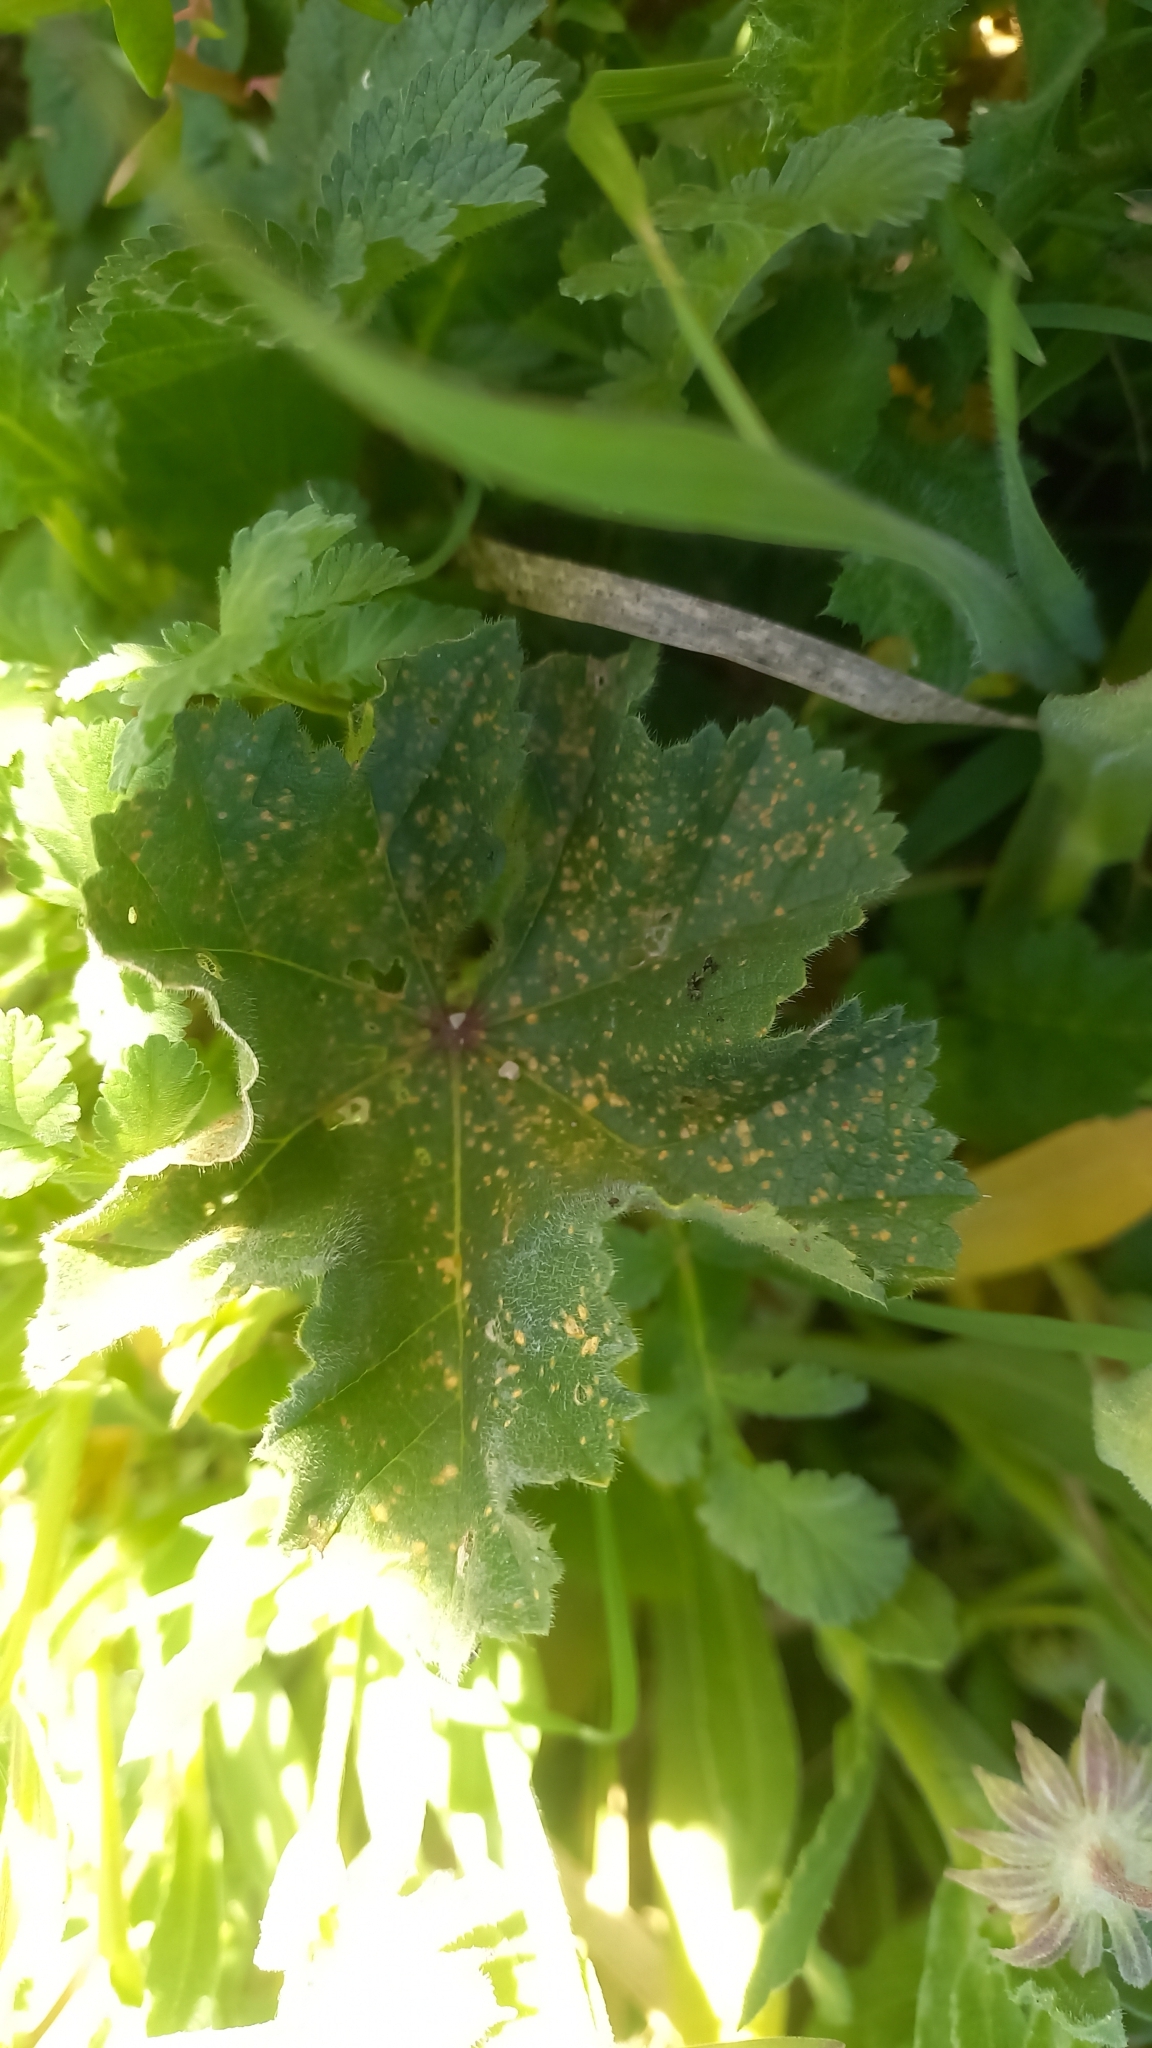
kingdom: Fungi
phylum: Basidiomycota
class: Pucciniomycetes
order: Pucciniales
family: Pucciniaceae
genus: Puccinia
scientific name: Puccinia malvacearum
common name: Hollyhock rust
